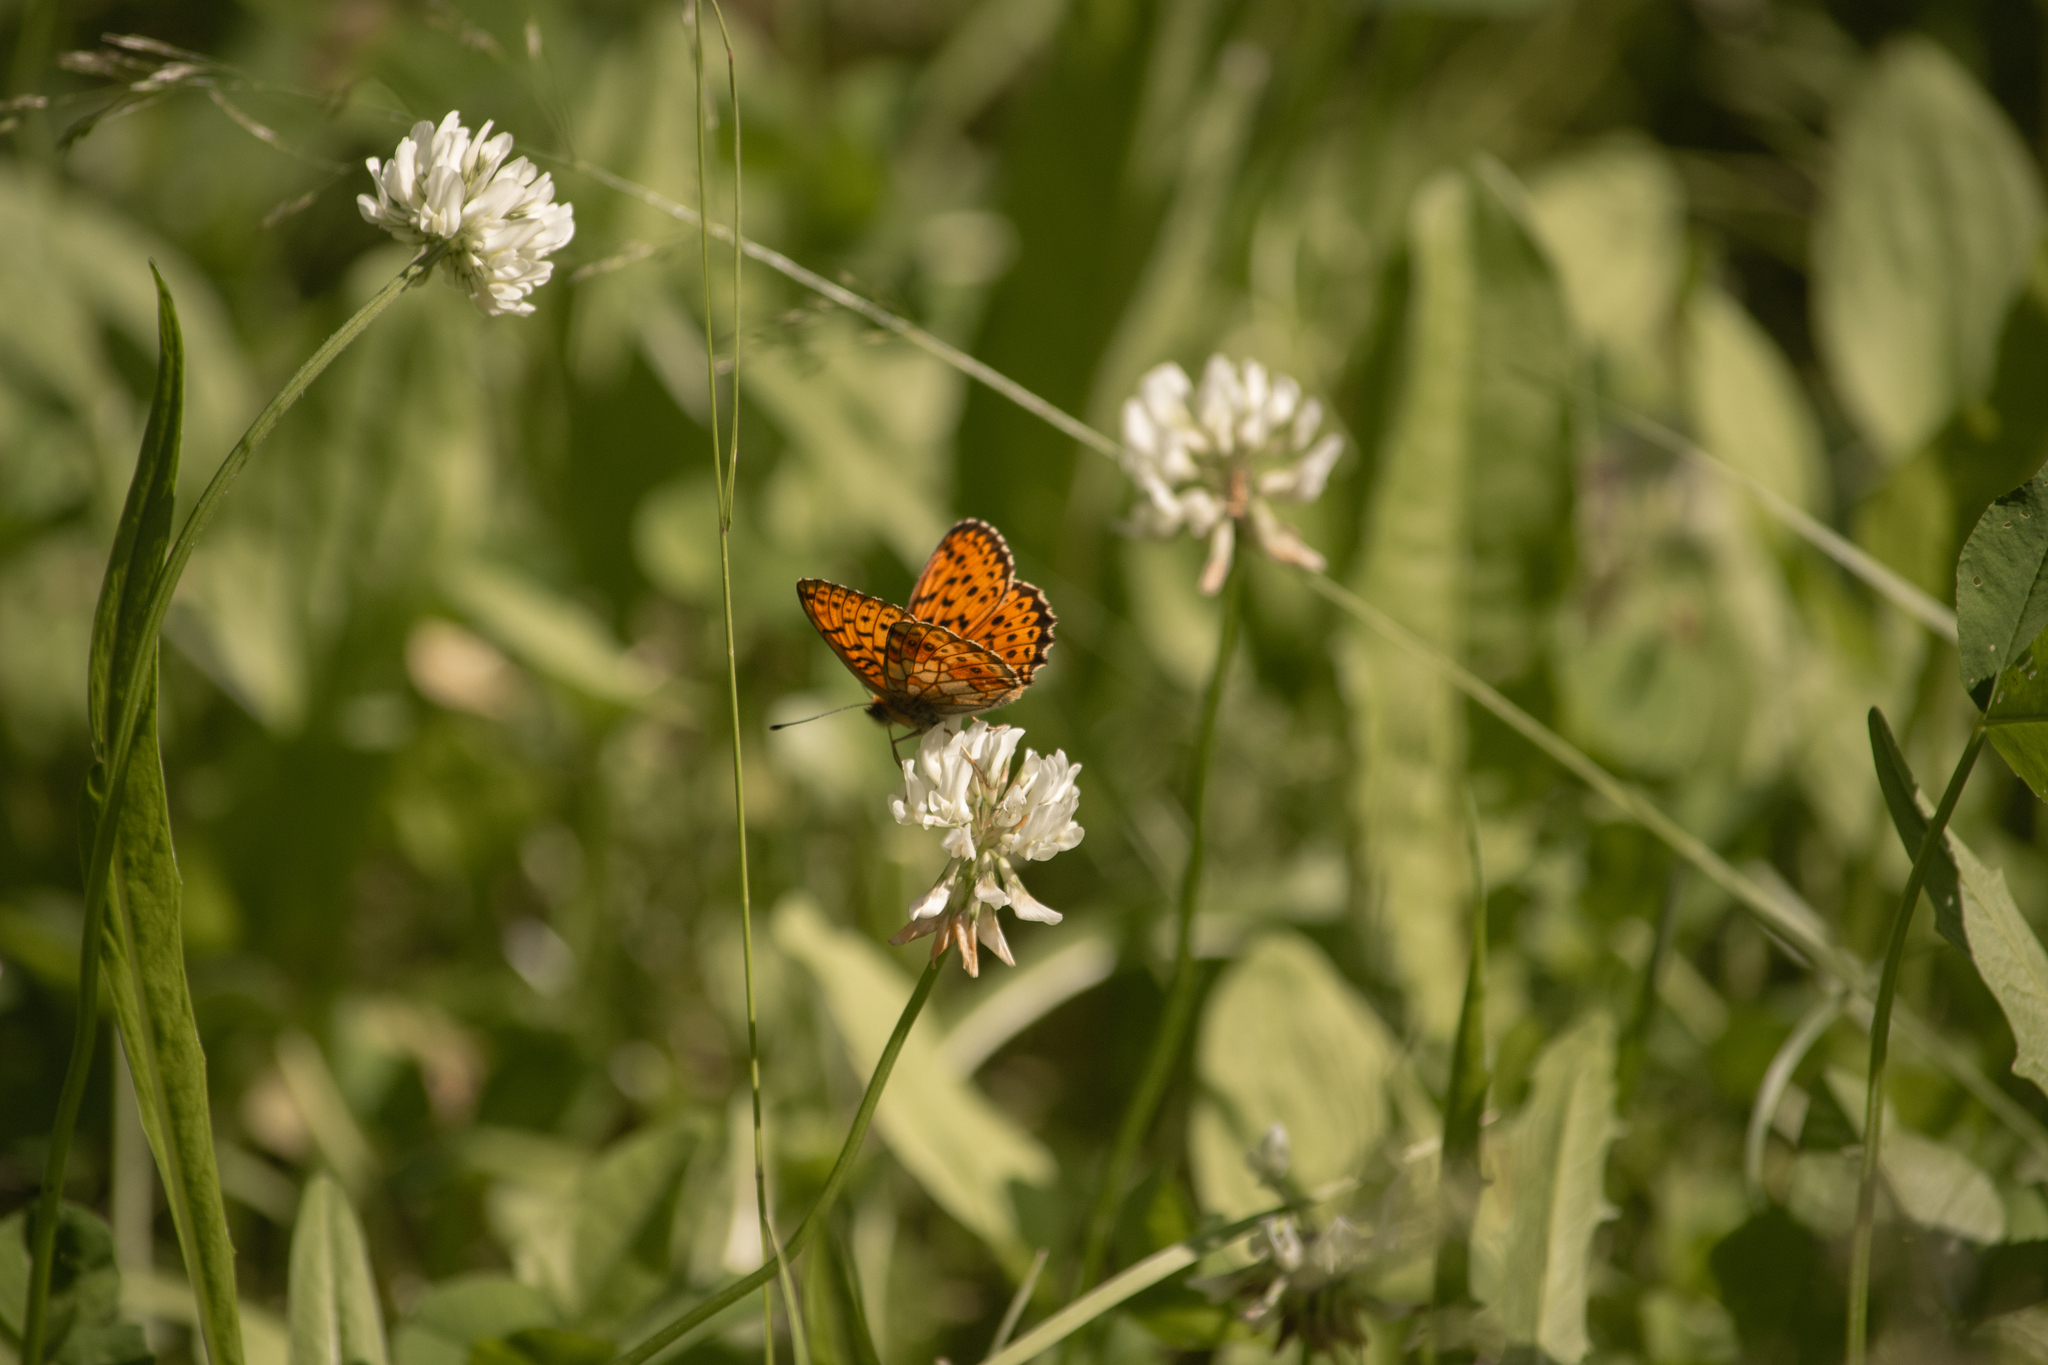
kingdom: Animalia
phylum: Arthropoda
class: Insecta
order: Lepidoptera
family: Nymphalidae
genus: Brenthis
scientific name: Brenthis ino
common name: Lesser marbled fritillary
